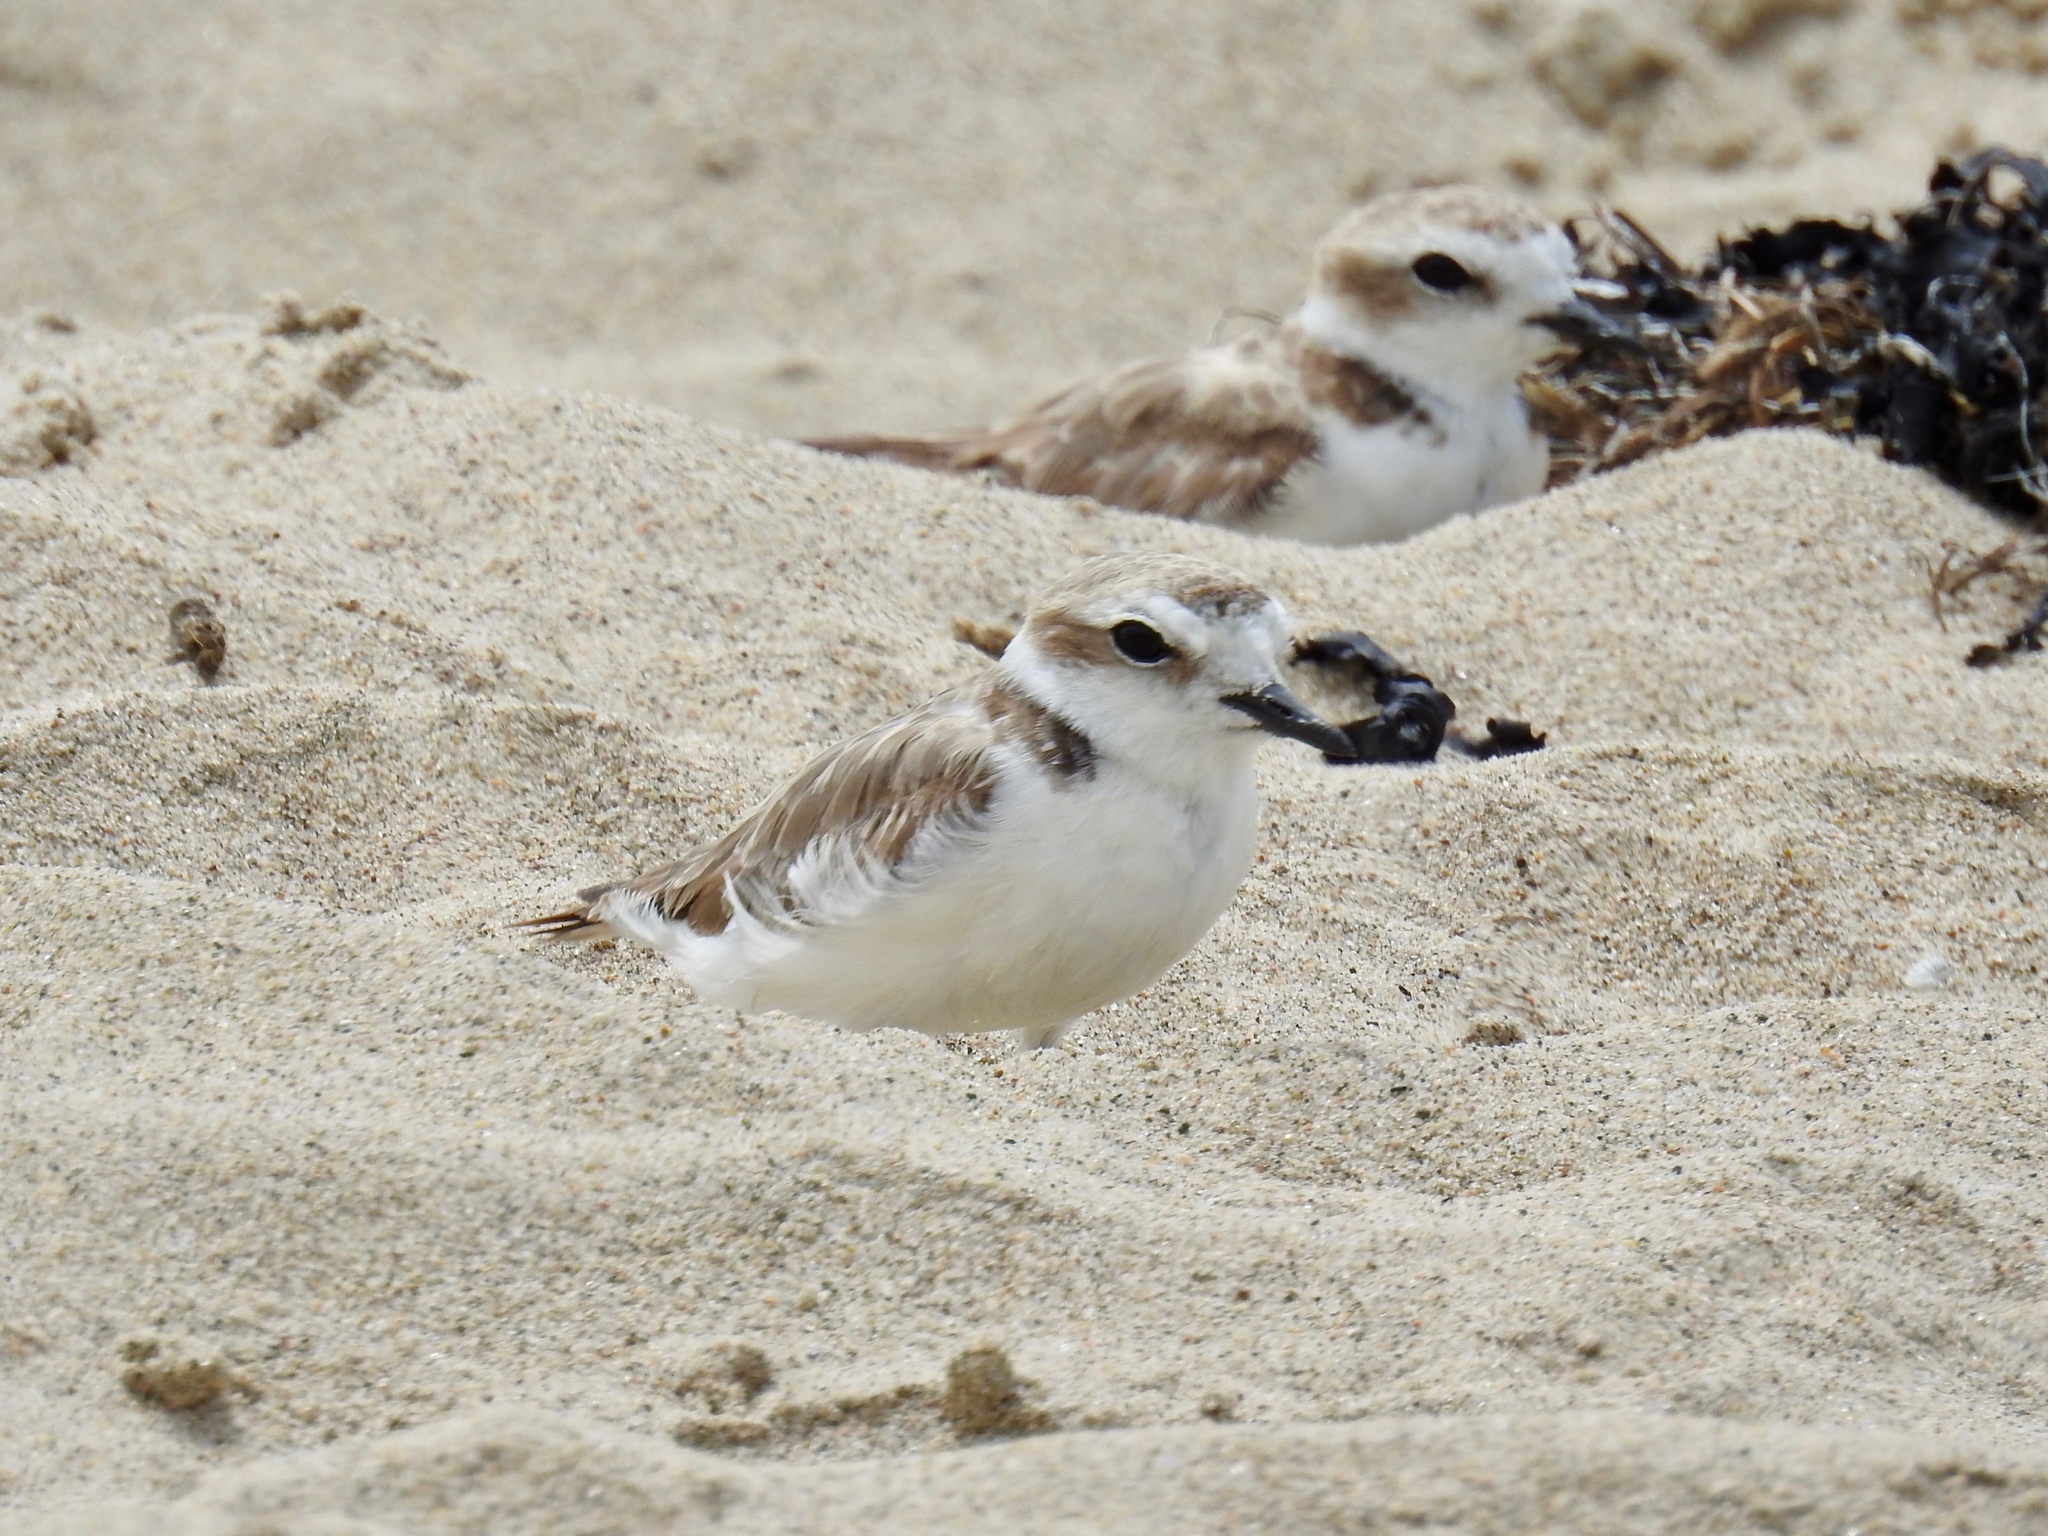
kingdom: Animalia
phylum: Chordata
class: Aves
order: Charadriiformes
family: Charadriidae
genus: Anarhynchus
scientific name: Anarhynchus
